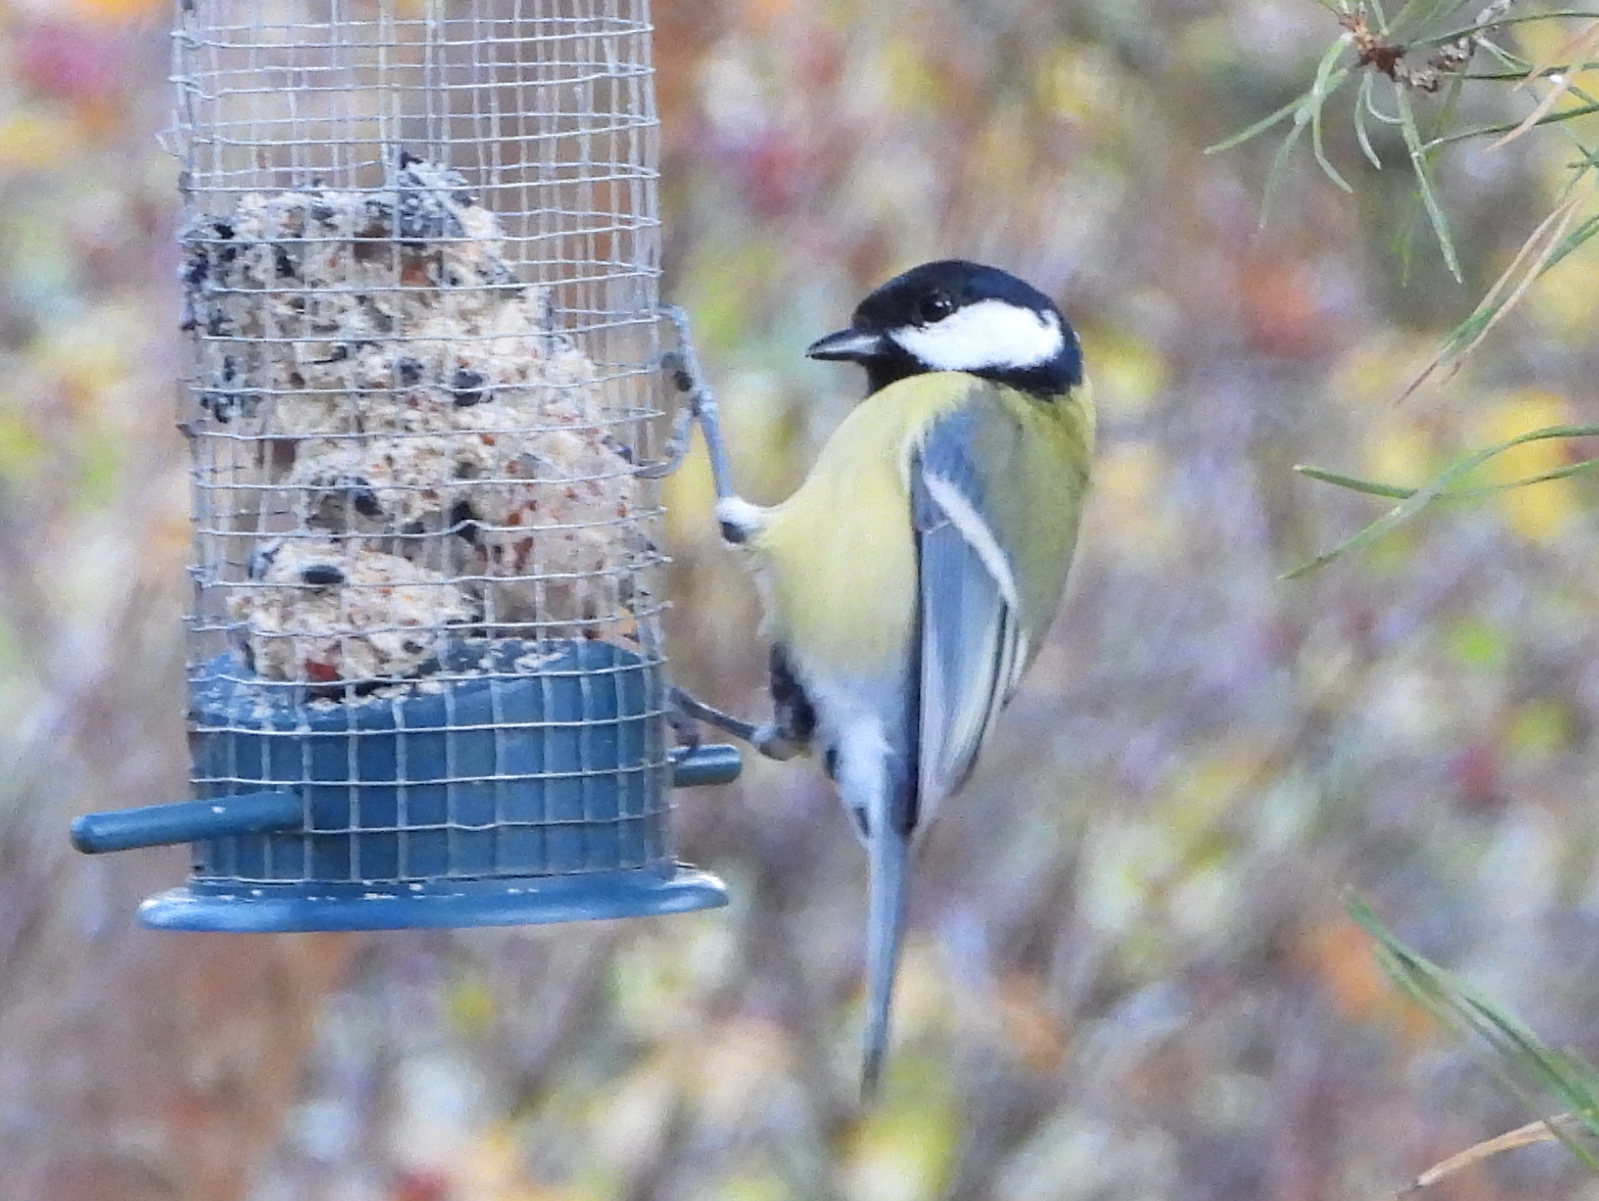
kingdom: Animalia
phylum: Chordata
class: Aves
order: Passeriformes
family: Paridae
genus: Parus
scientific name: Parus major
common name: Great tit
